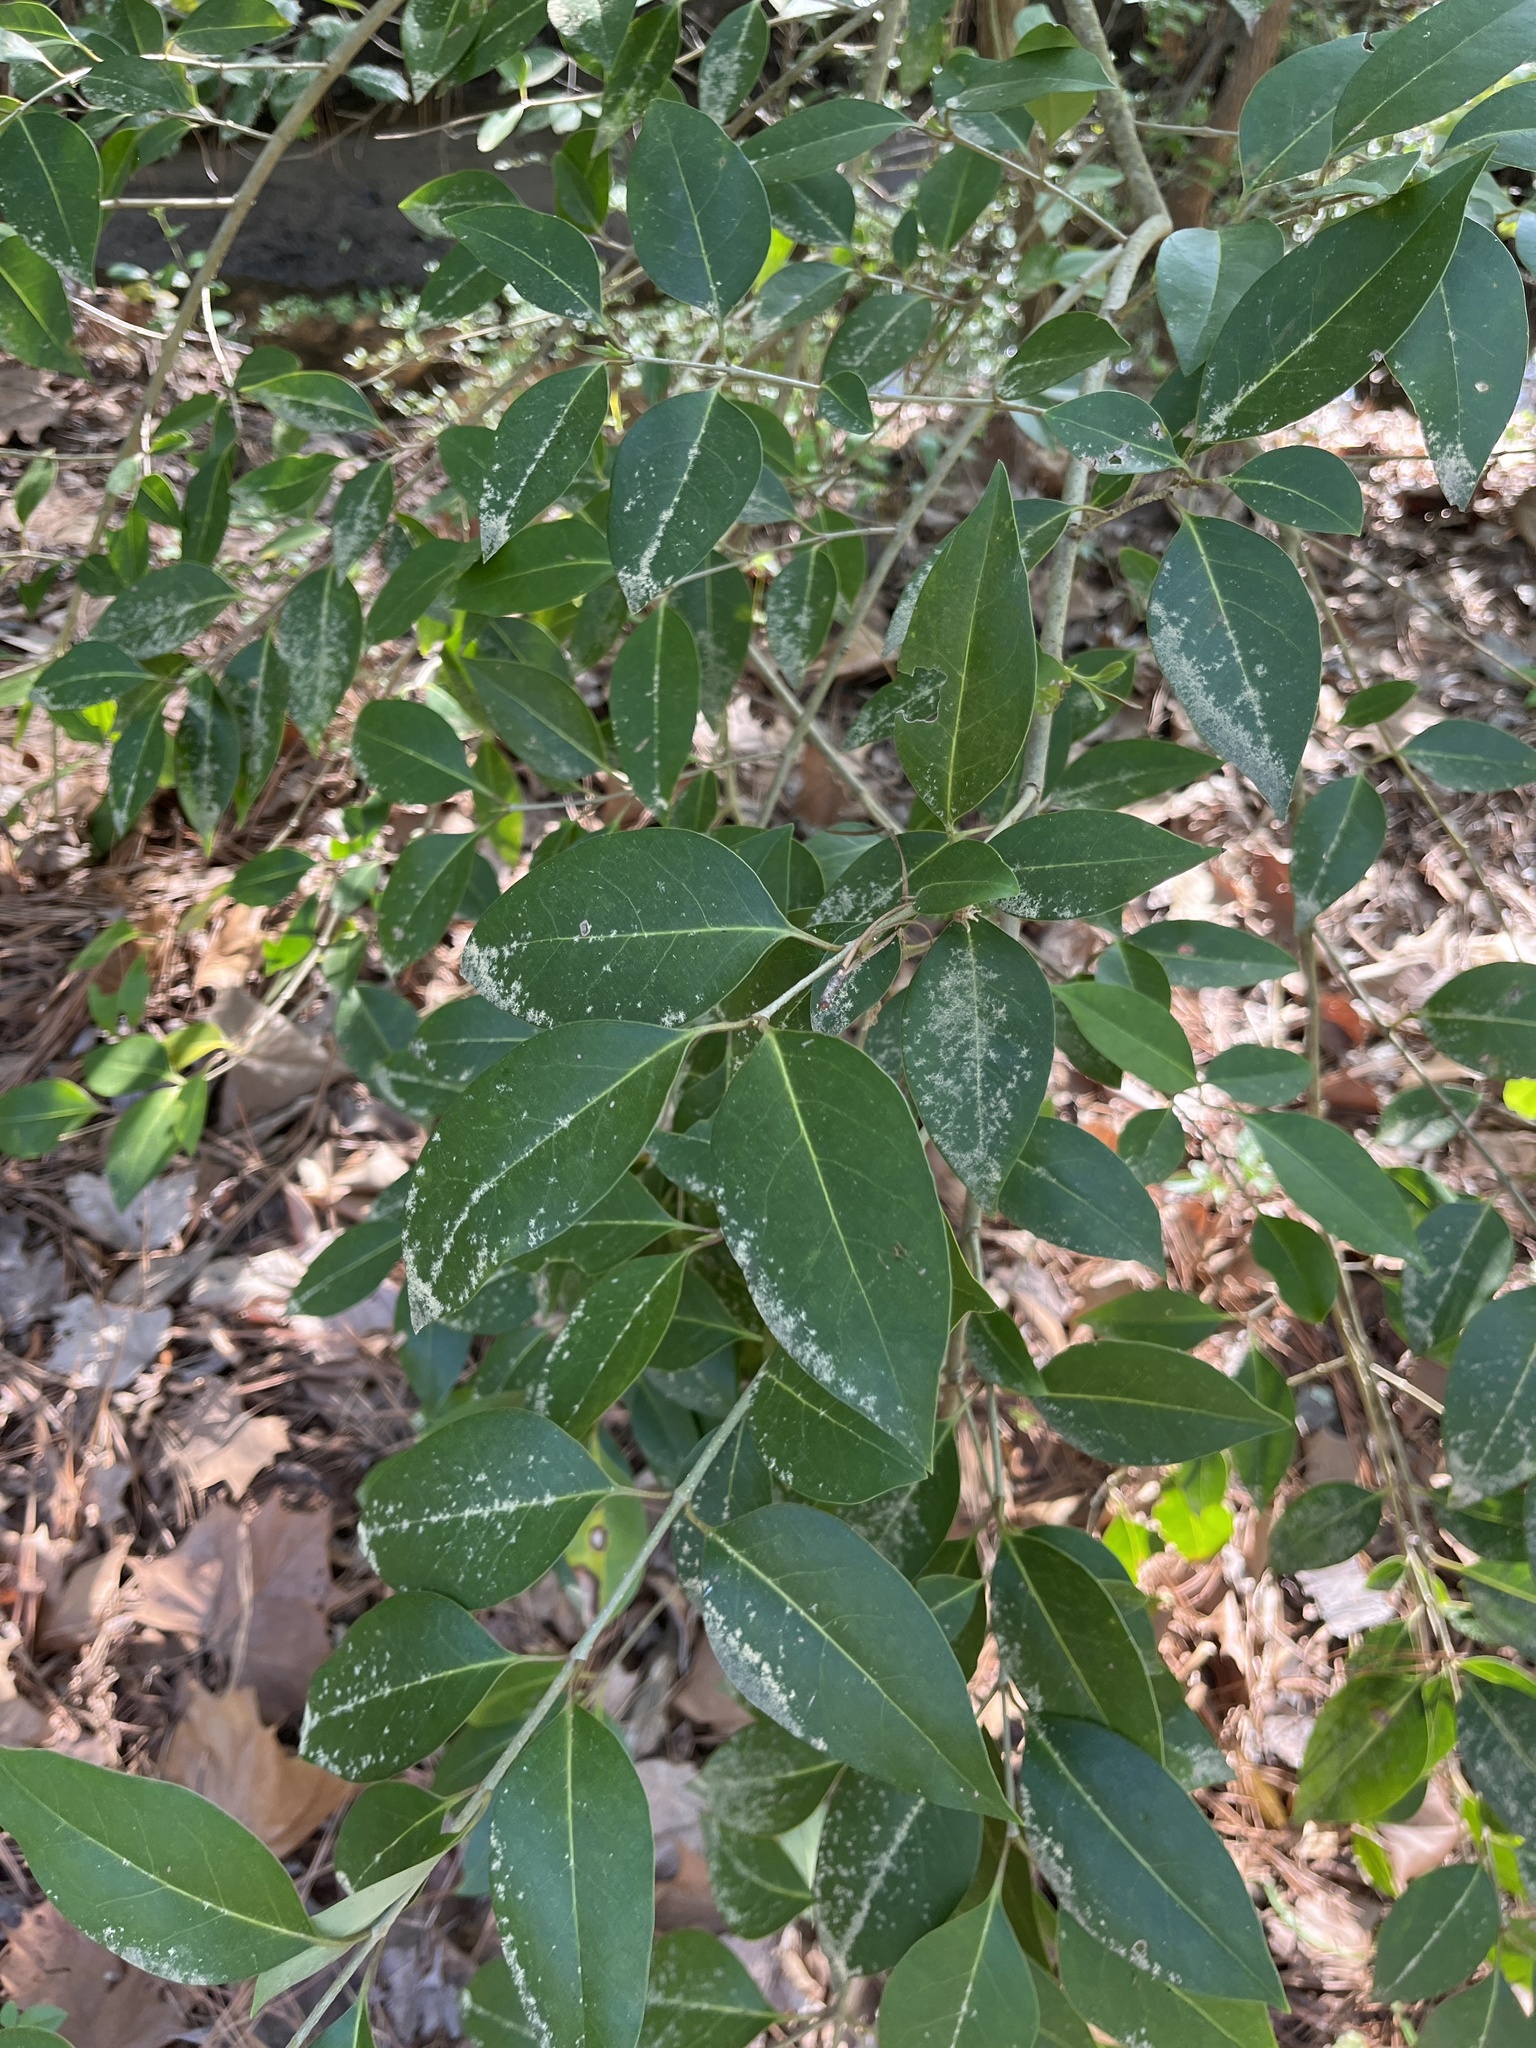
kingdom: Plantae
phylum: Tracheophyta
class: Magnoliopsida
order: Lamiales
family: Oleaceae
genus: Ligustrum
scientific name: Ligustrum lucidum
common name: Glossy privet
